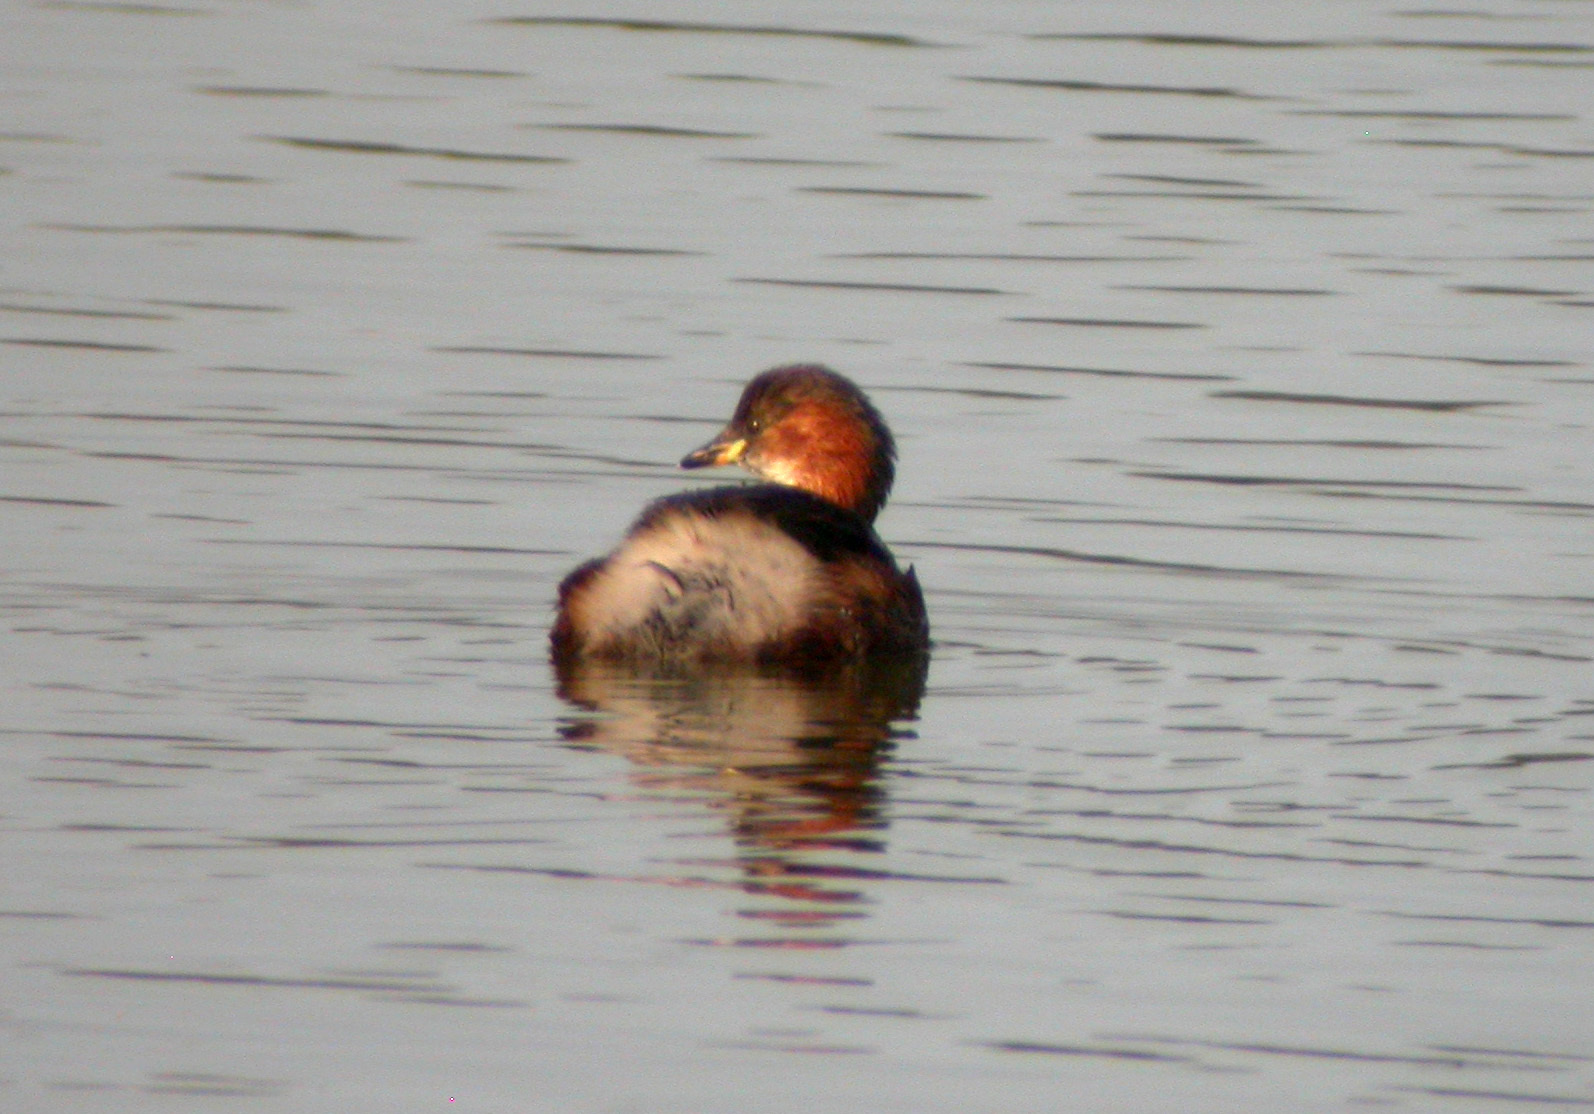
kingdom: Animalia
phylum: Chordata
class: Aves
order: Podicipediformes
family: Podicipedidae
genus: Tachybaptus
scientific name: Tachybaptus ruficollis
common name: Little grebe
